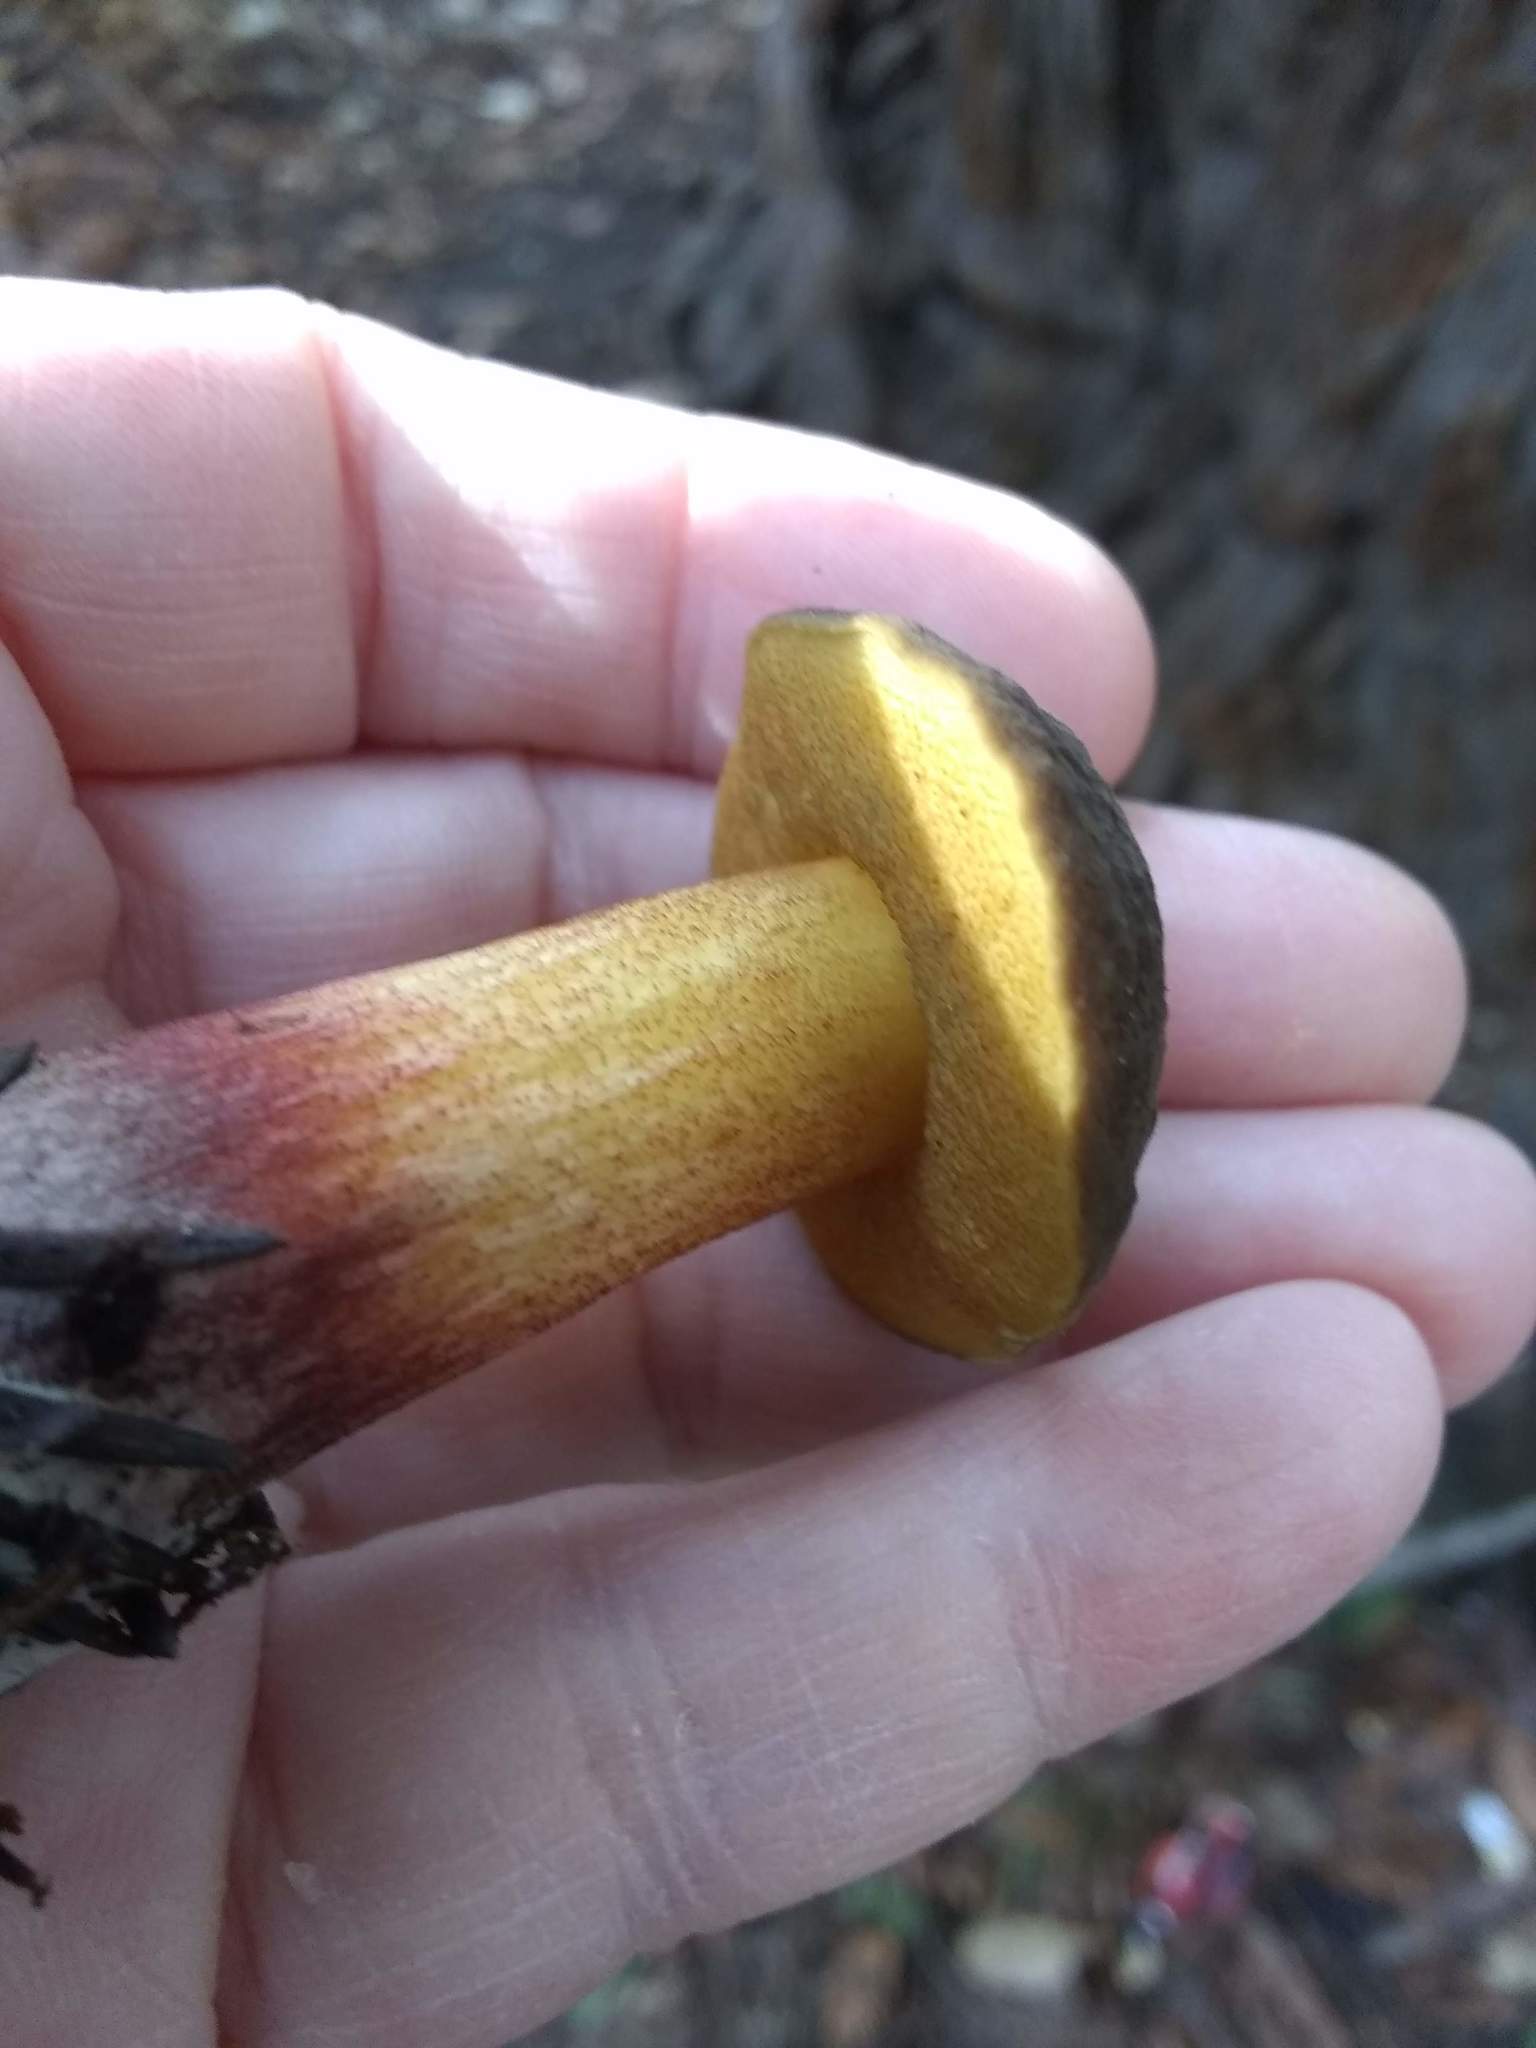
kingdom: Fungi
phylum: Basidiomycota
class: Agaricomycetes
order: Boletales
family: Boletaceae
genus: Xerocomellus
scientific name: Xerocomellus mendocinensis
